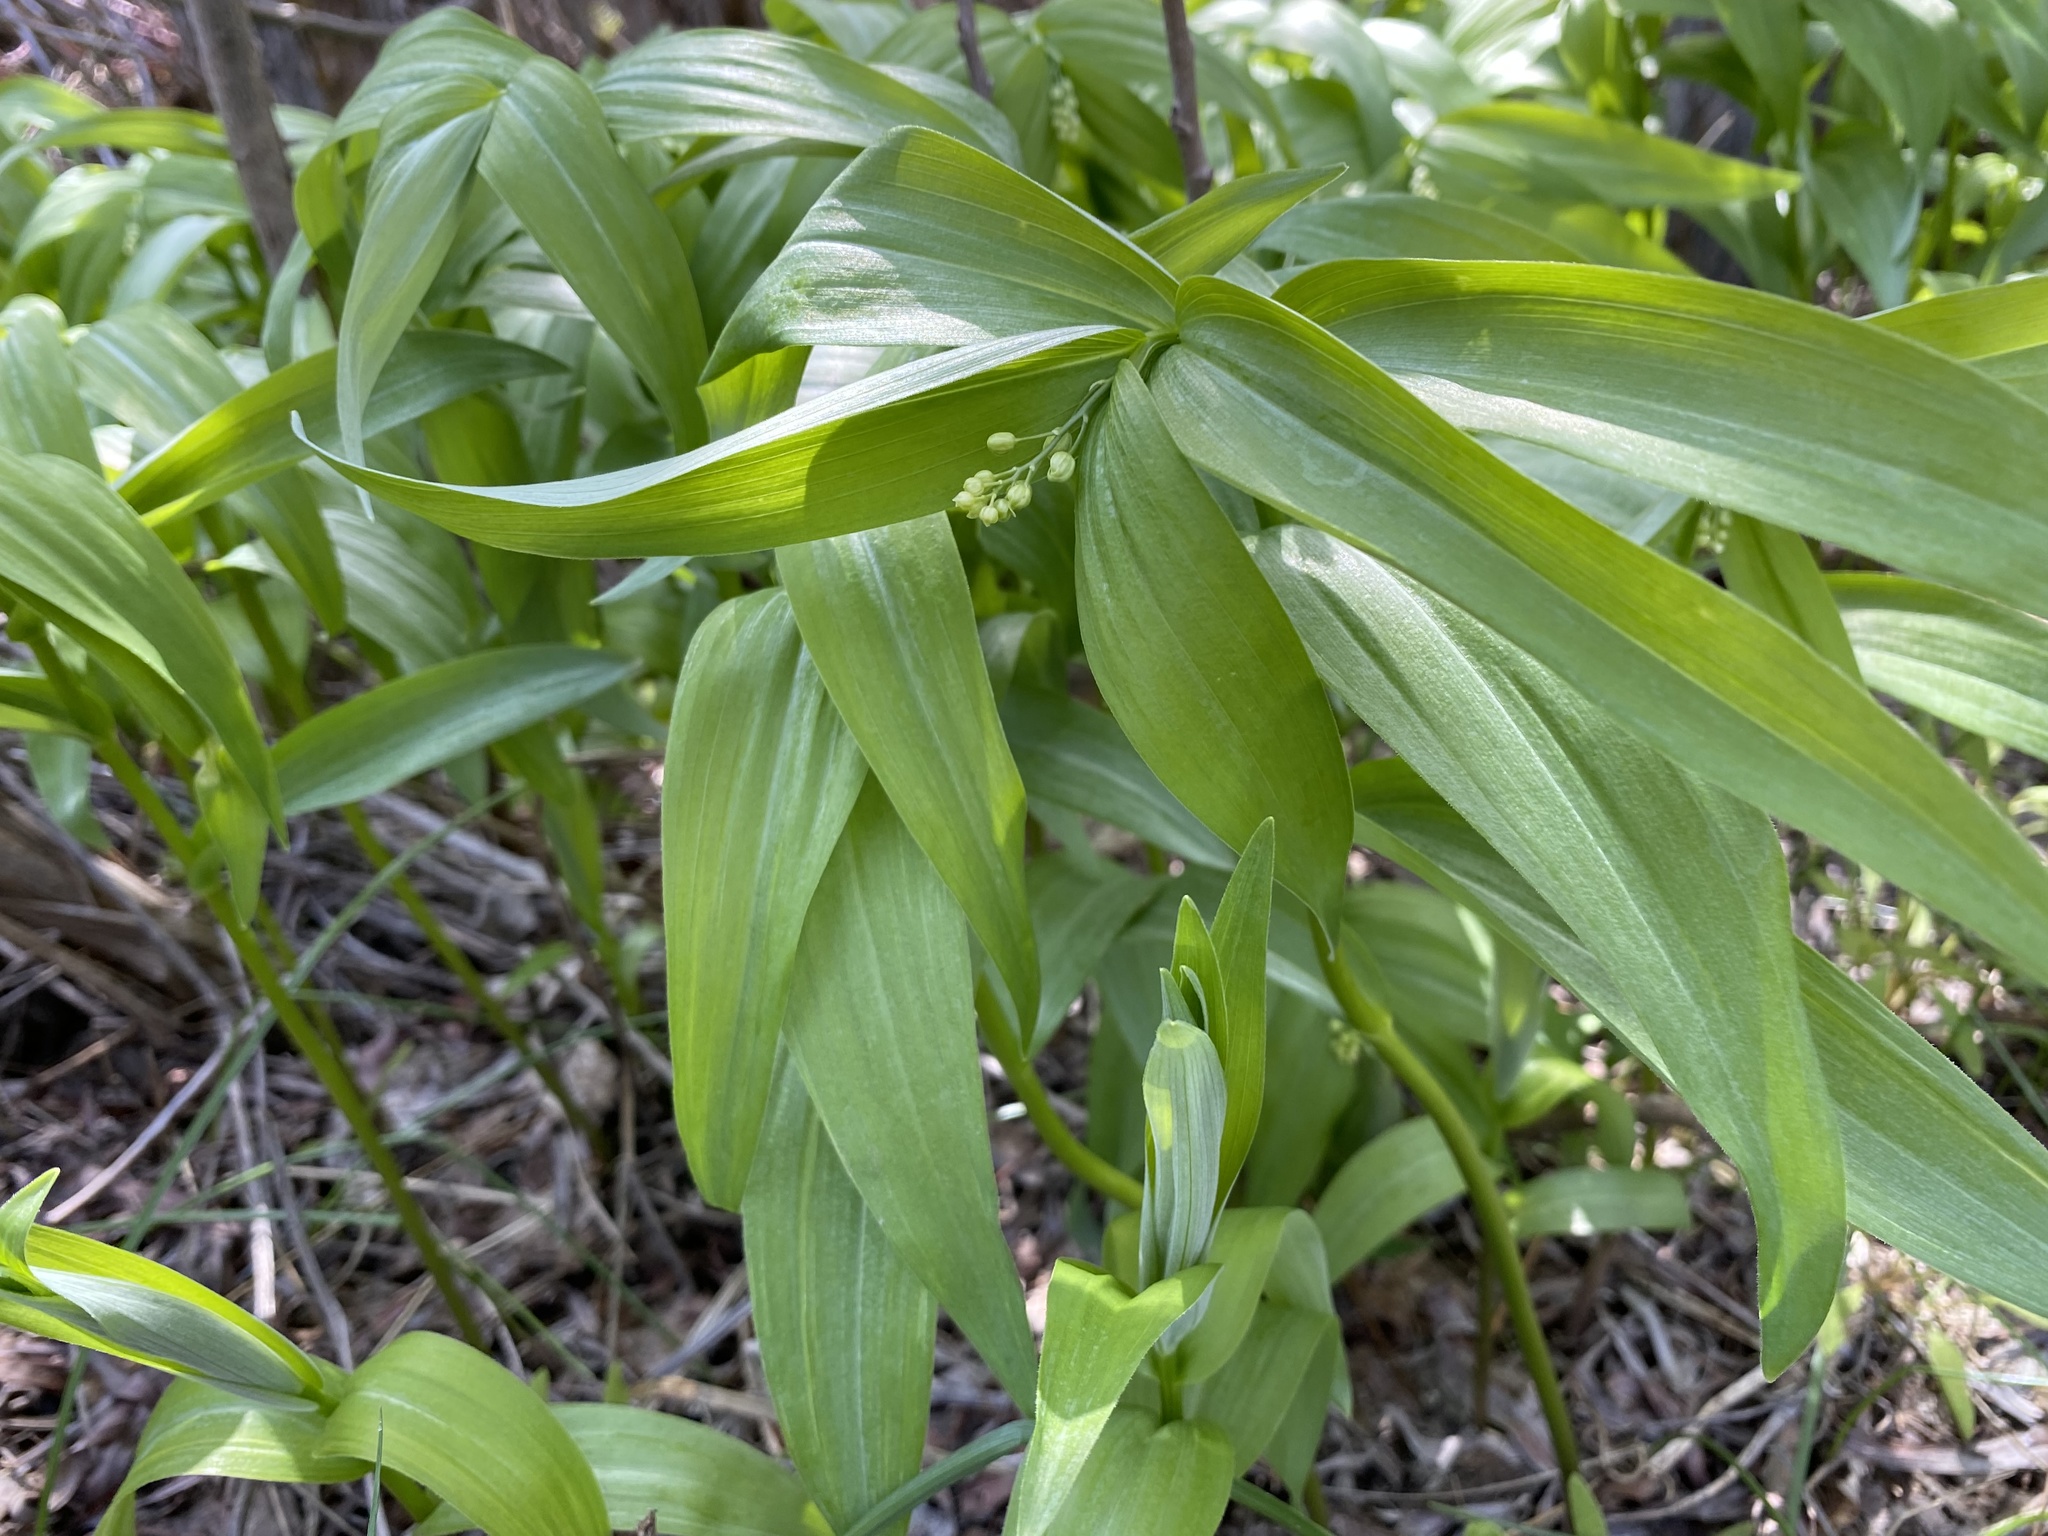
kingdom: Plantae
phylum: Tracheophyta
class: Liliopsida
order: Asparagales
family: Asparagaceae
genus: Maianthemum
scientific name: Maianthemum stellatum
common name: Little false solomon's seal
